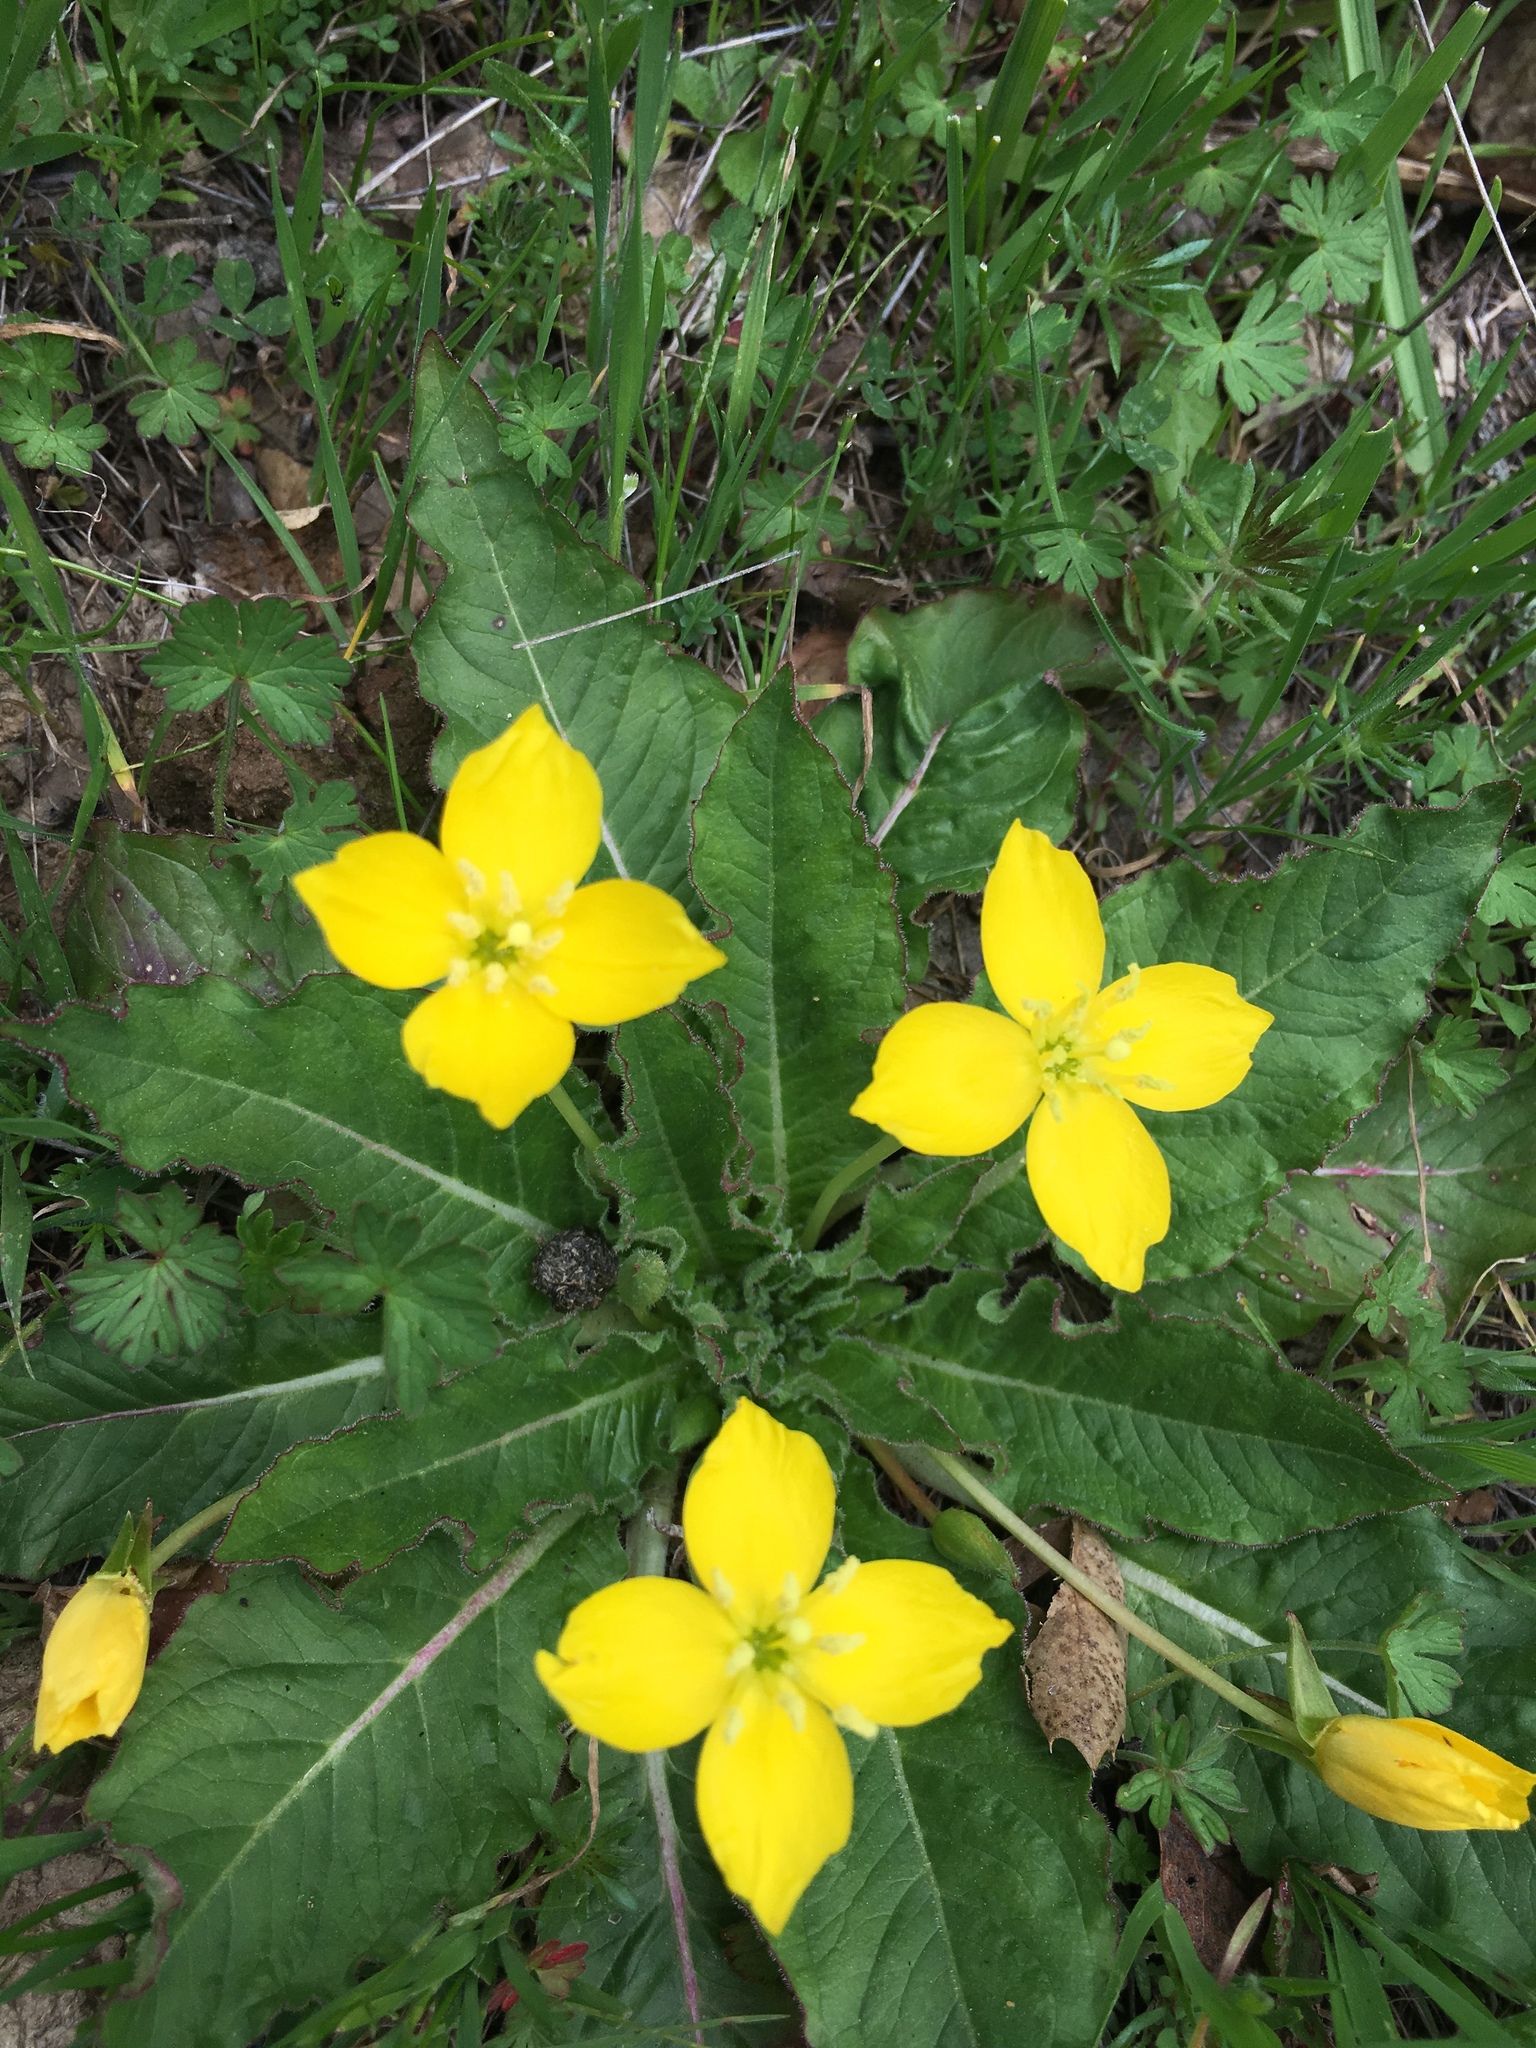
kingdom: Plantae
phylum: Tracheophyta
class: Magnoliopsida
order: Myrtales
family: Onagraceae
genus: Taraxia
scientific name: Taraxia ovata
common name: Goldeneggs
